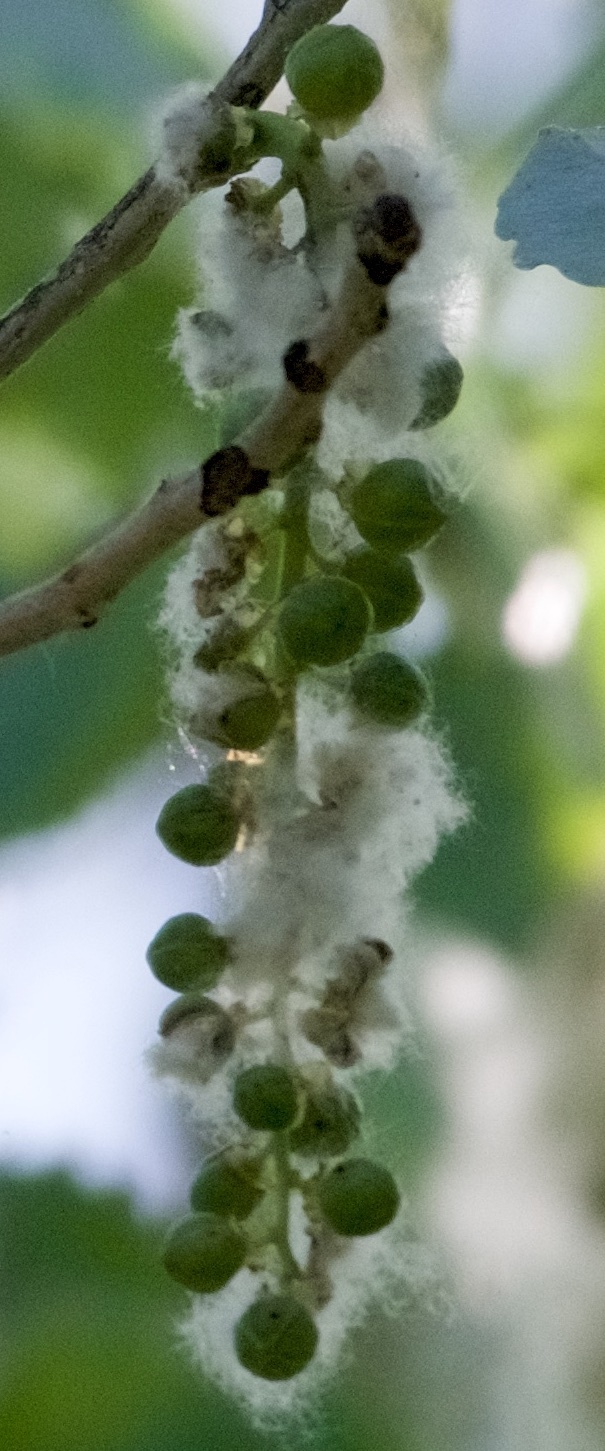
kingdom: Plantae
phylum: Tracheophyta
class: Magnoliopsida
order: Malpighiales
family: Salicaceae
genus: Populus
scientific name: Populus fremontii
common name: Fremont's cottonwood
